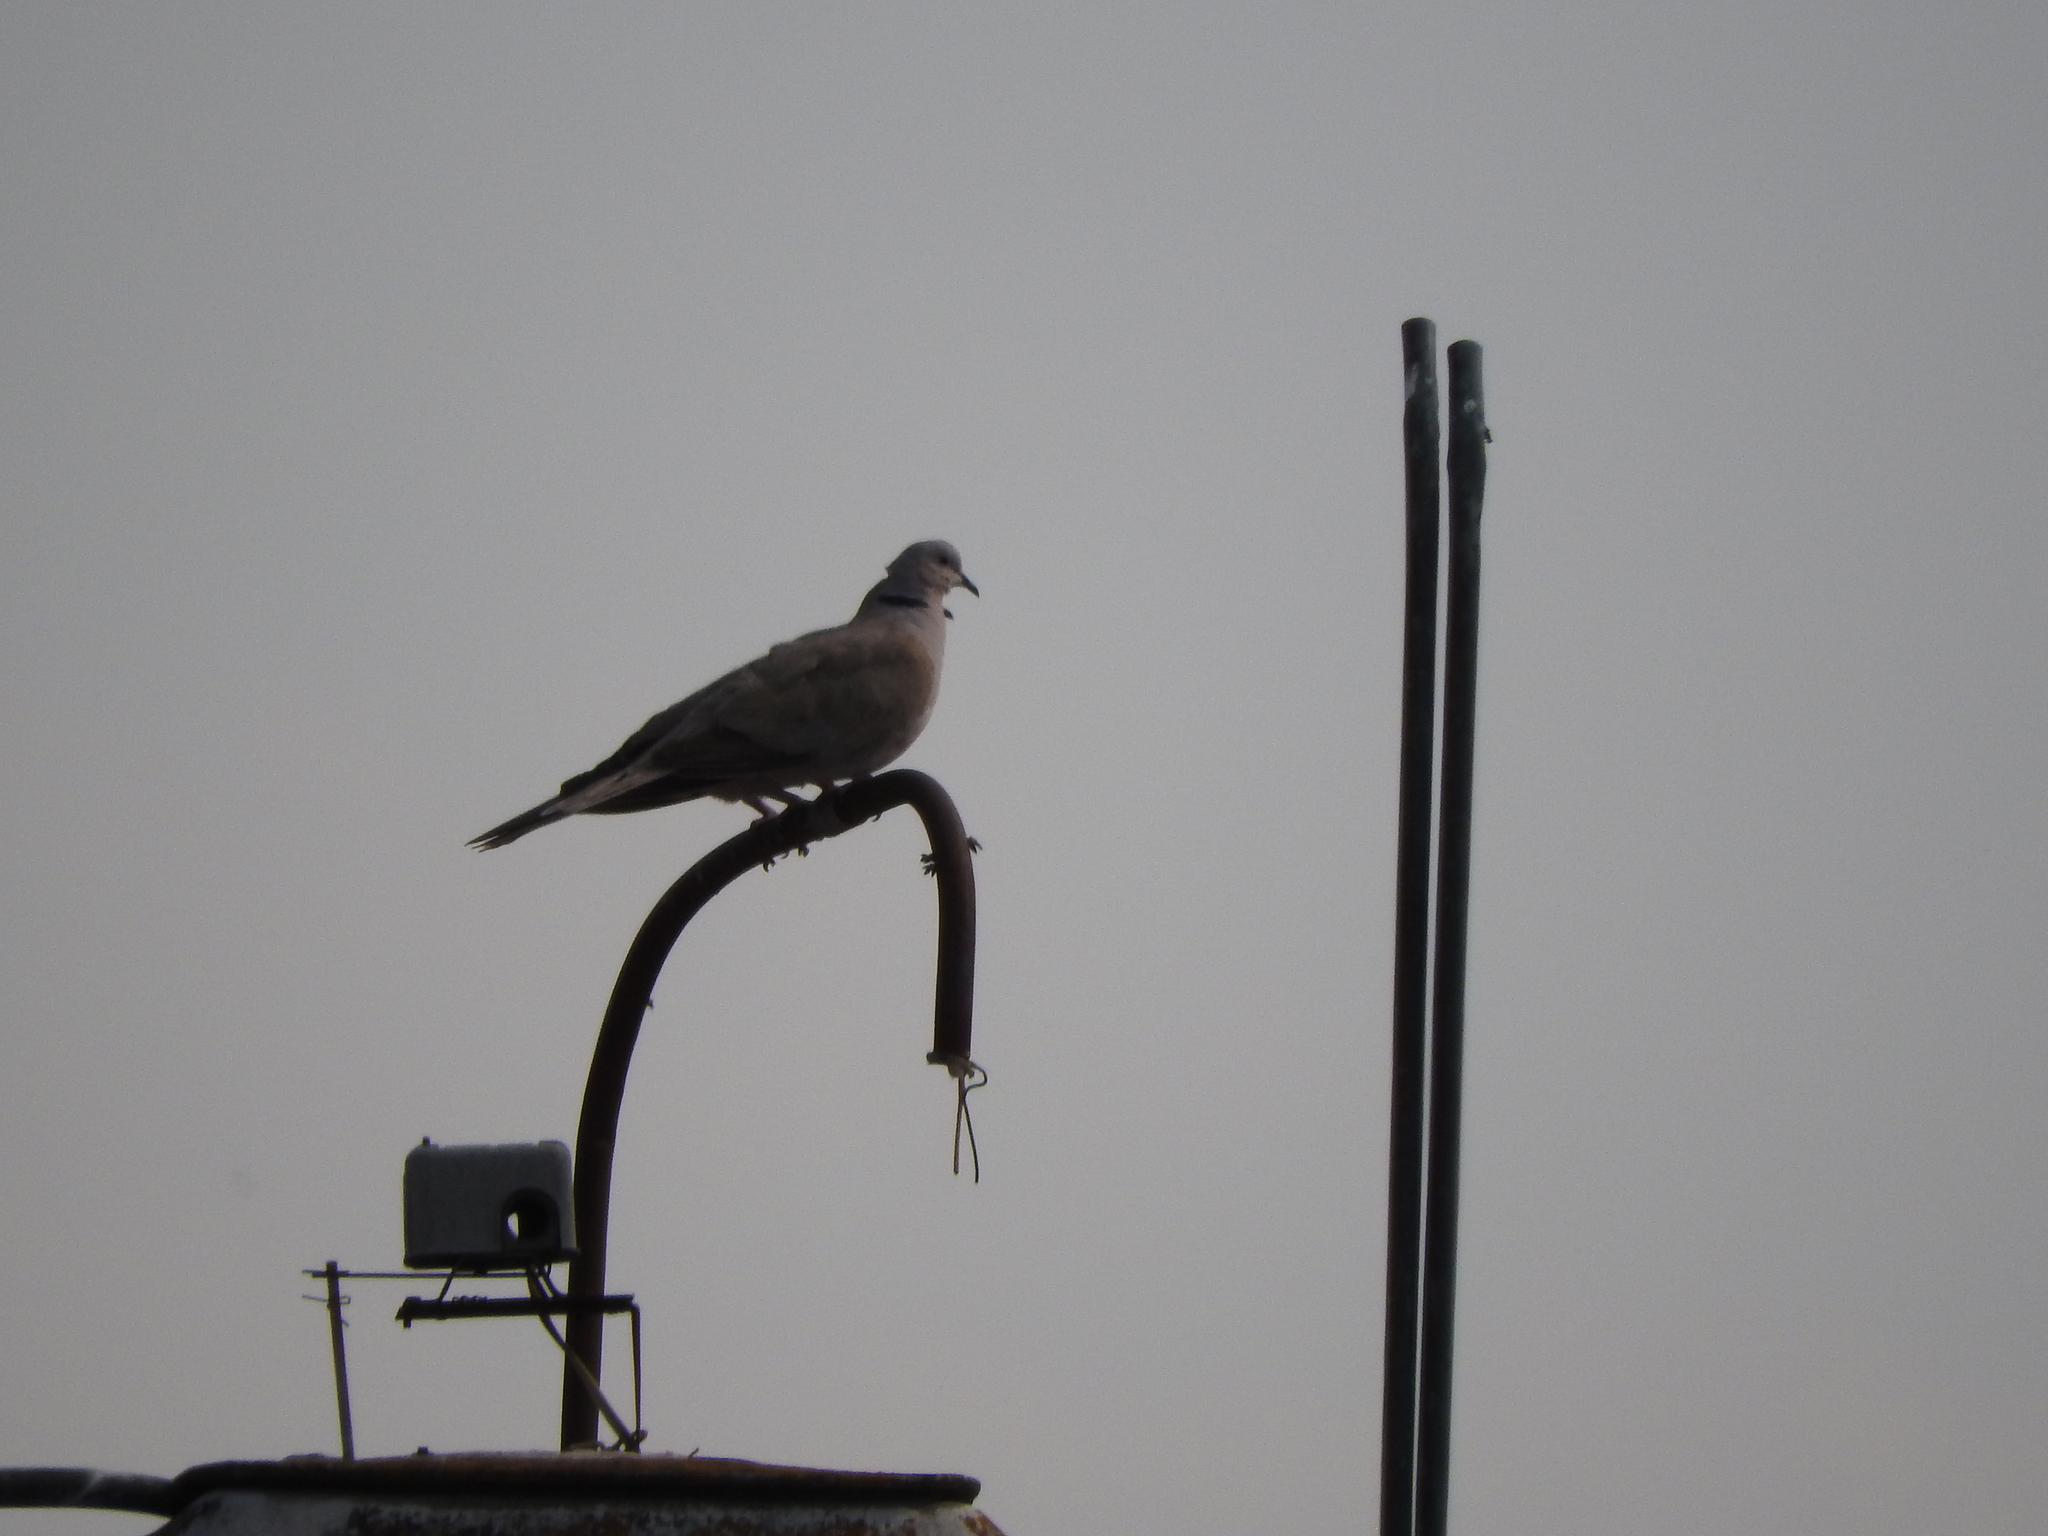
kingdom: Animalia
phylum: Chordata
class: Aves
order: Columbiformes
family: Columbidae
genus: Streptopelia
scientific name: Streptopelia decaocto
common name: Eurasian collared dove
